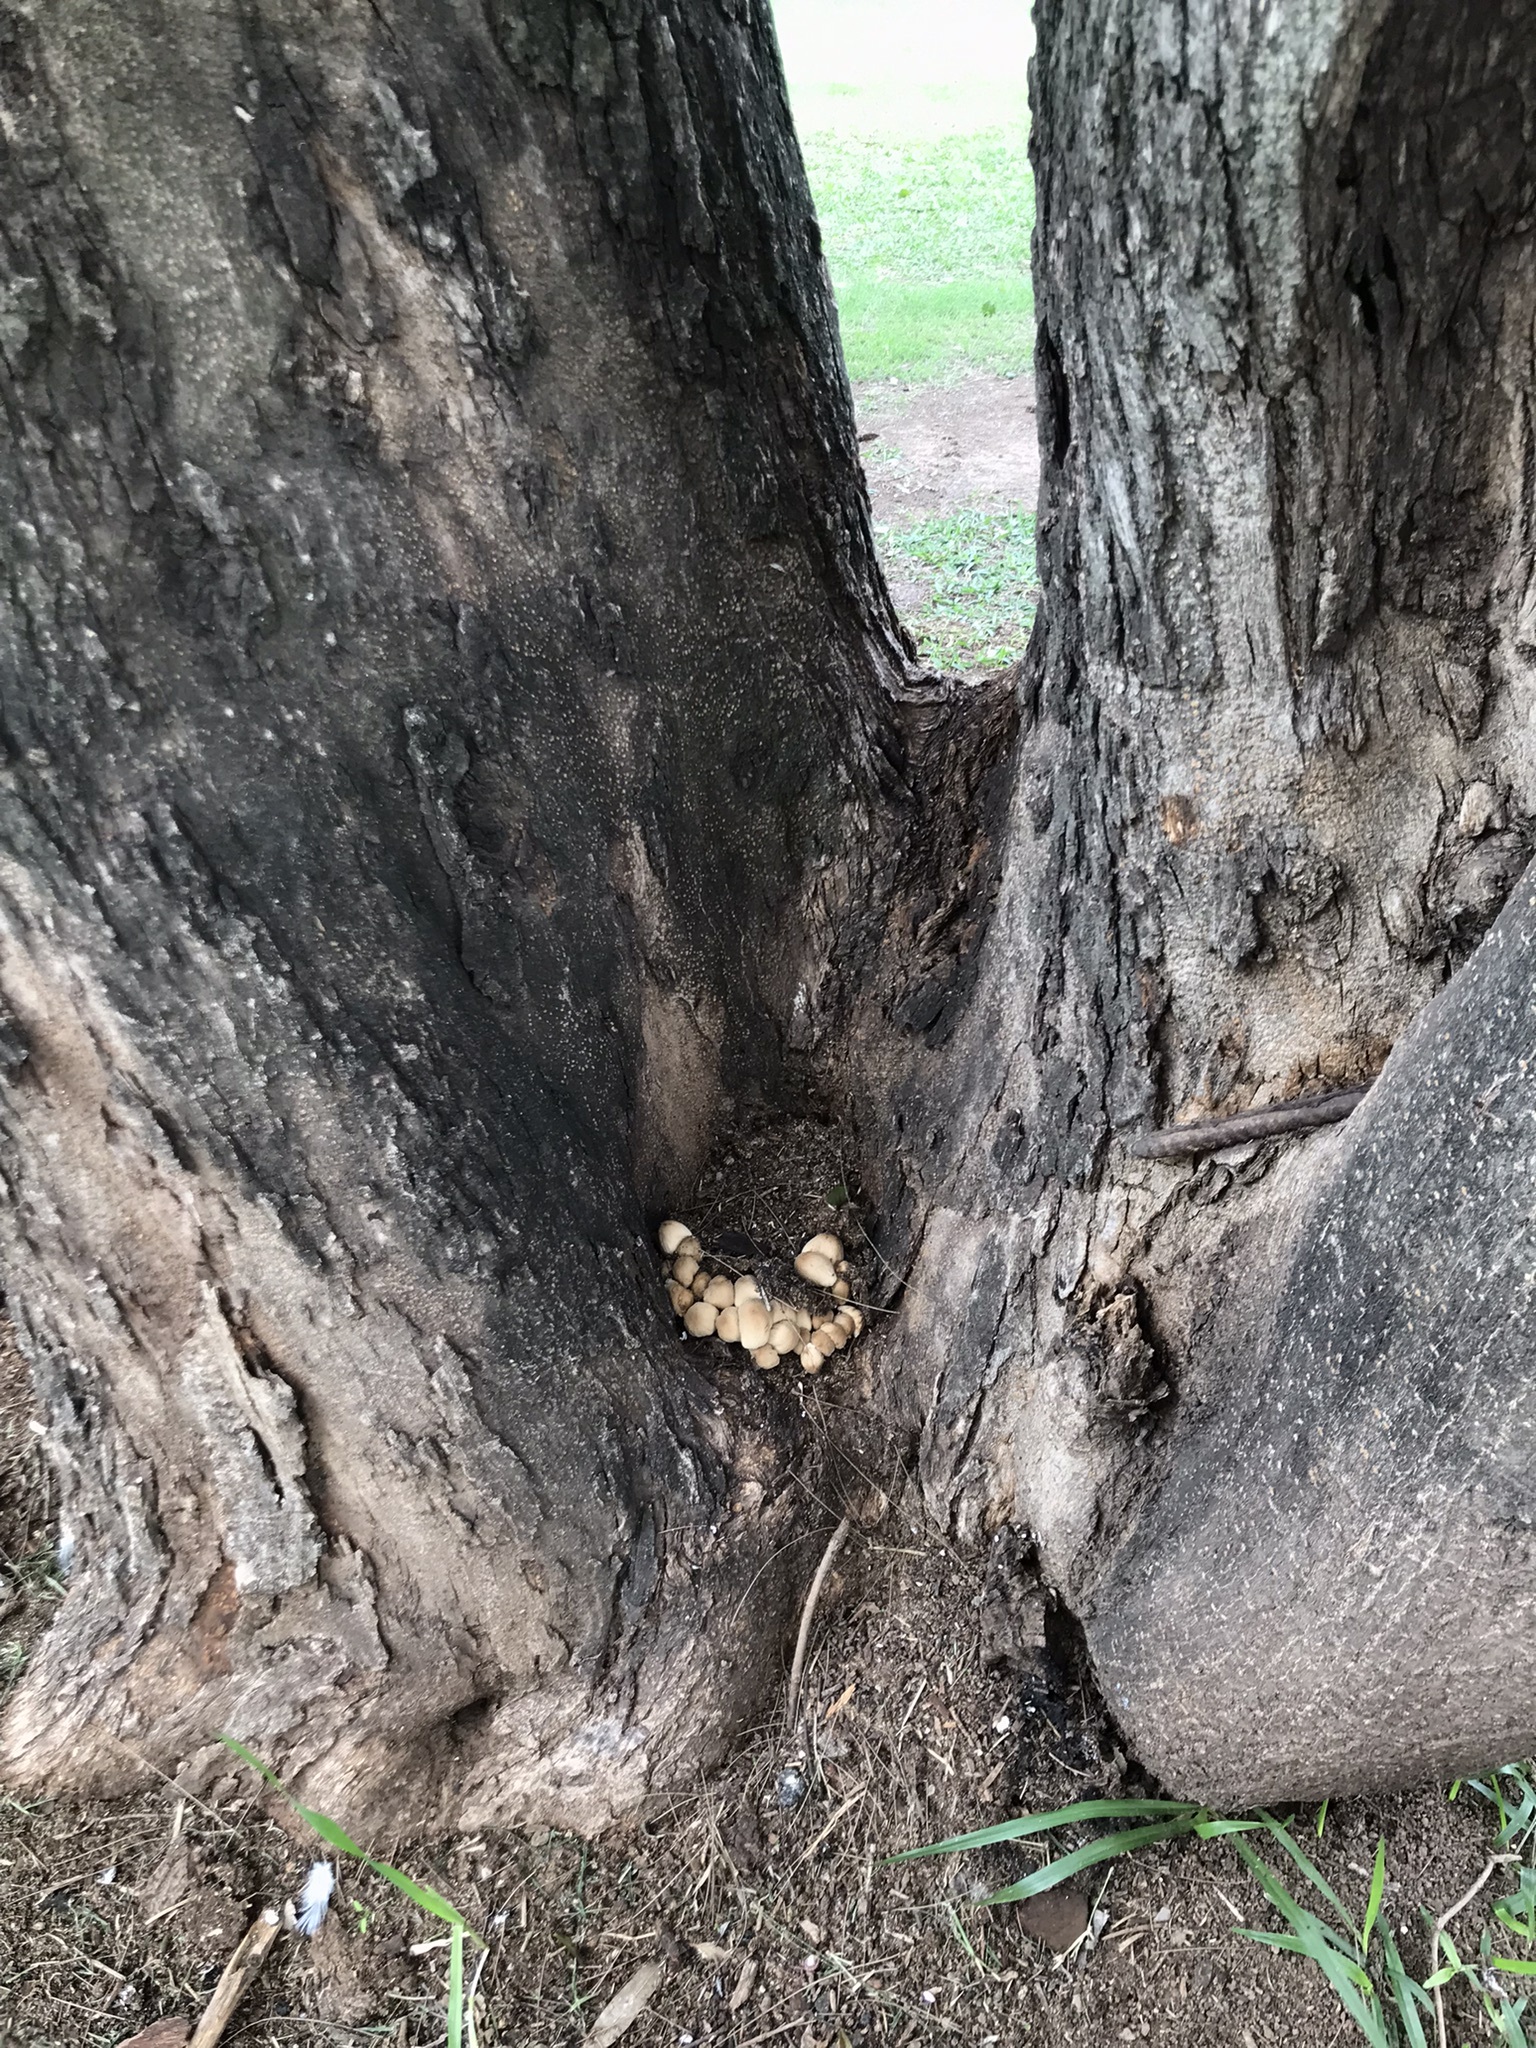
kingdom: Fungi
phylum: Basidiomycota
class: Agaricomycetes
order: Agaricales
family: Psathyrellaceae
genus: Coprinellus
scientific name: Coprinellus micaceus
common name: Glistening ink-cap
